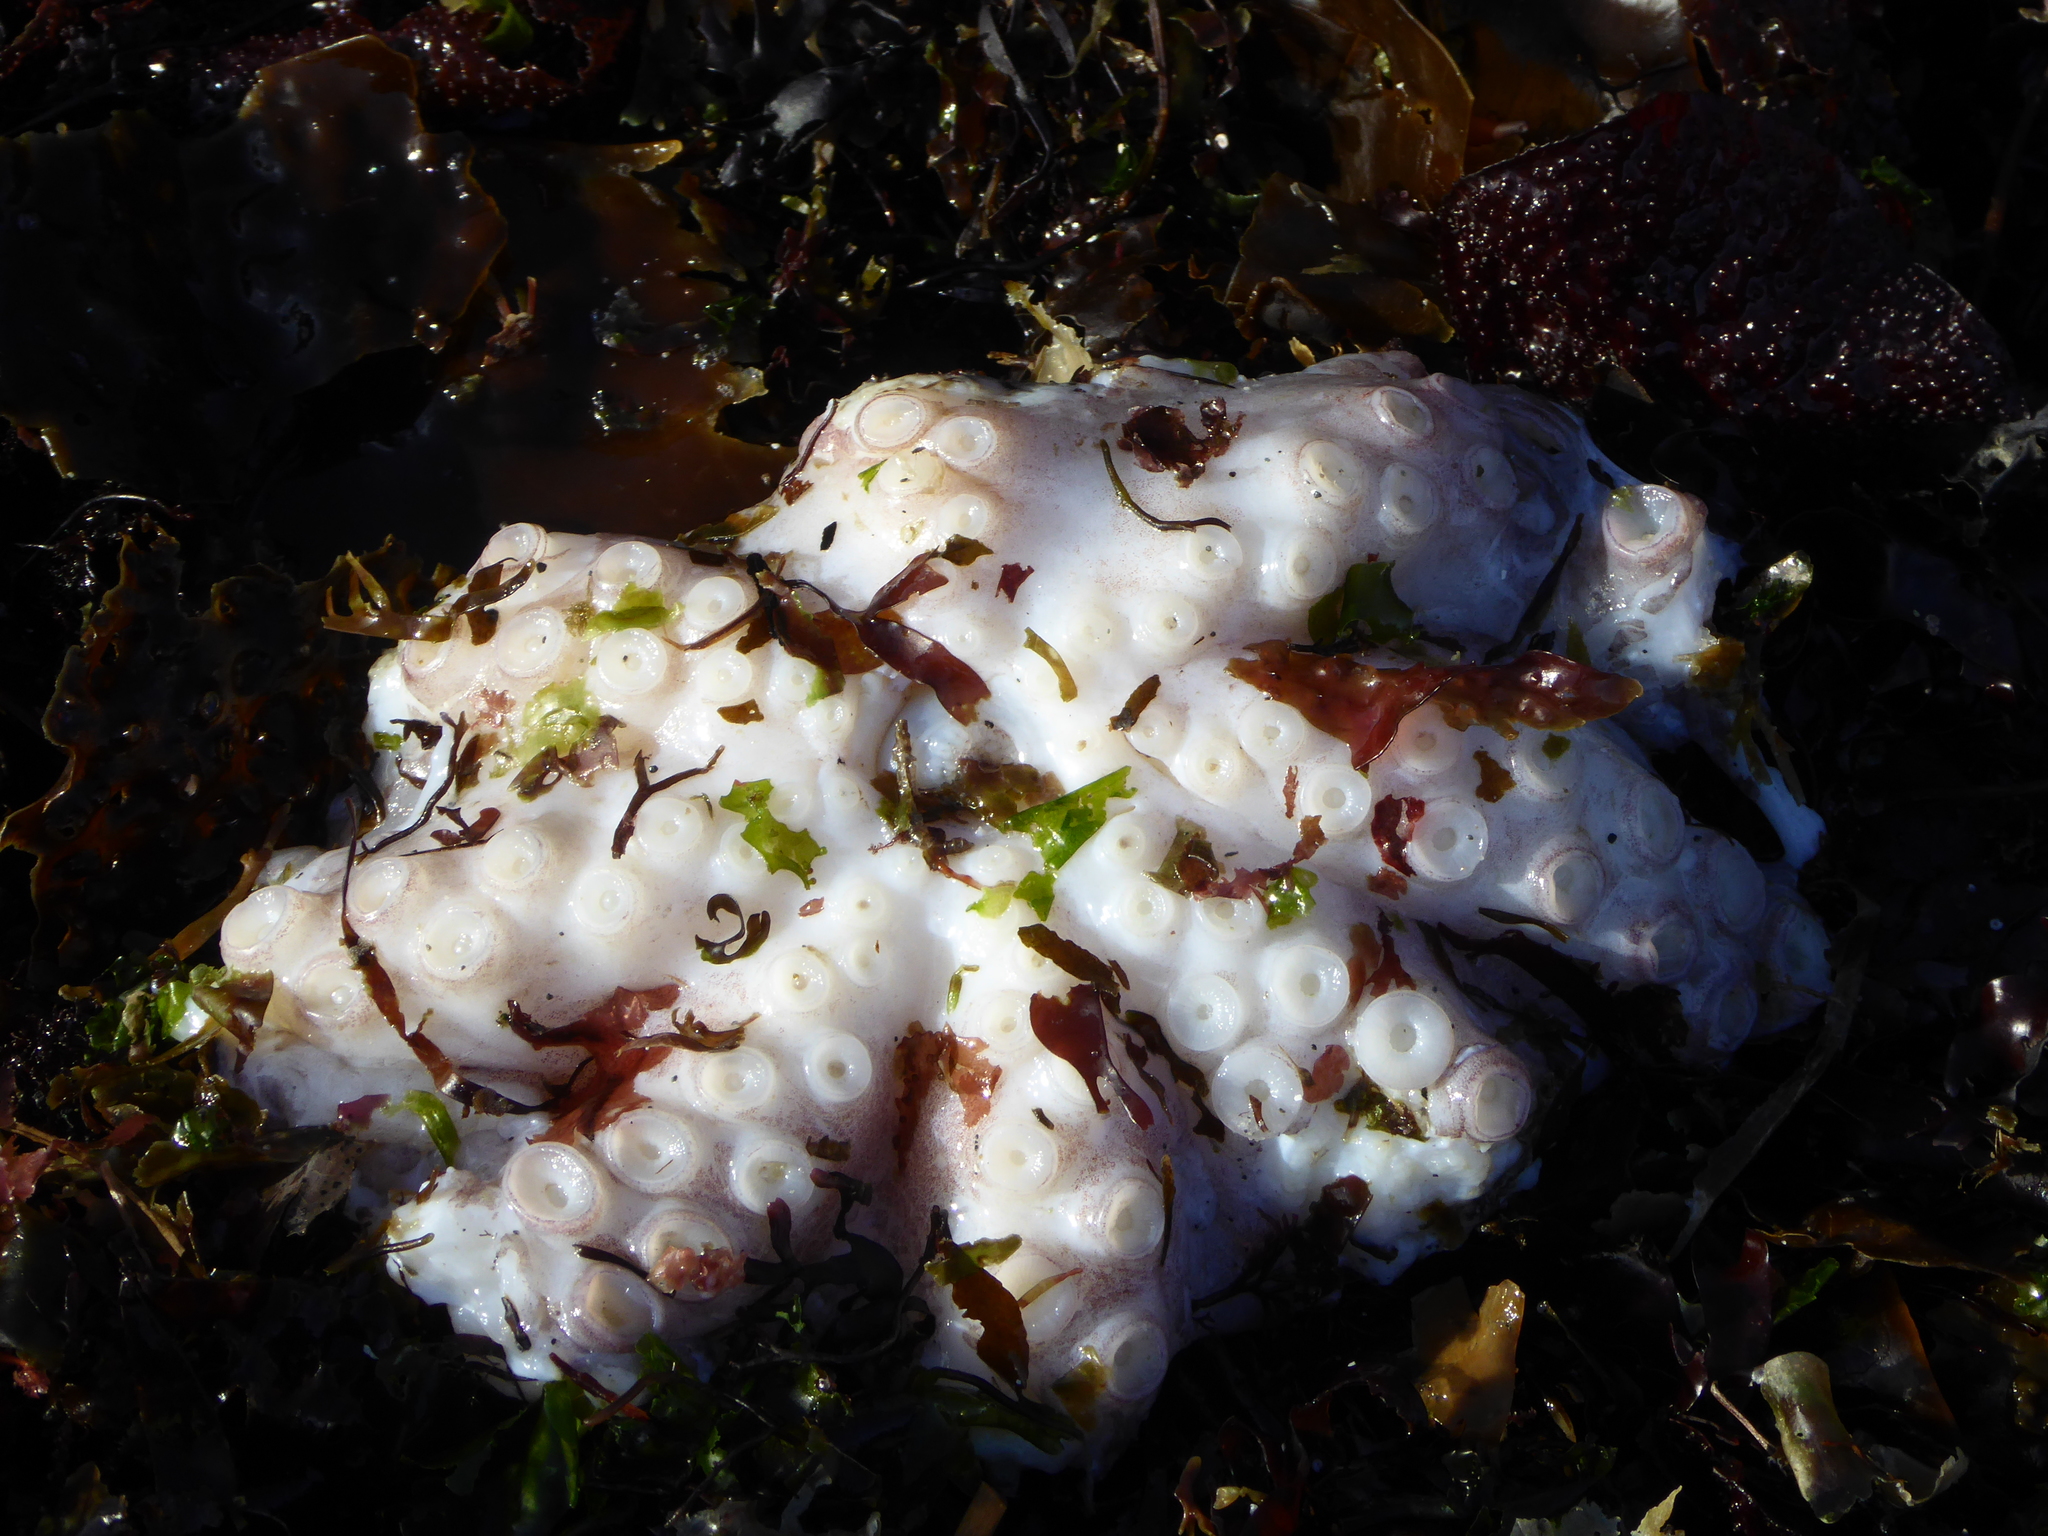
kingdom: Animalia
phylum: Mollusca
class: Cephalopoda
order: Octopoda
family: Enteroctopodidae
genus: Enteroctopus
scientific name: Enteroctopus dofleini
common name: Giant north pacific octopus
